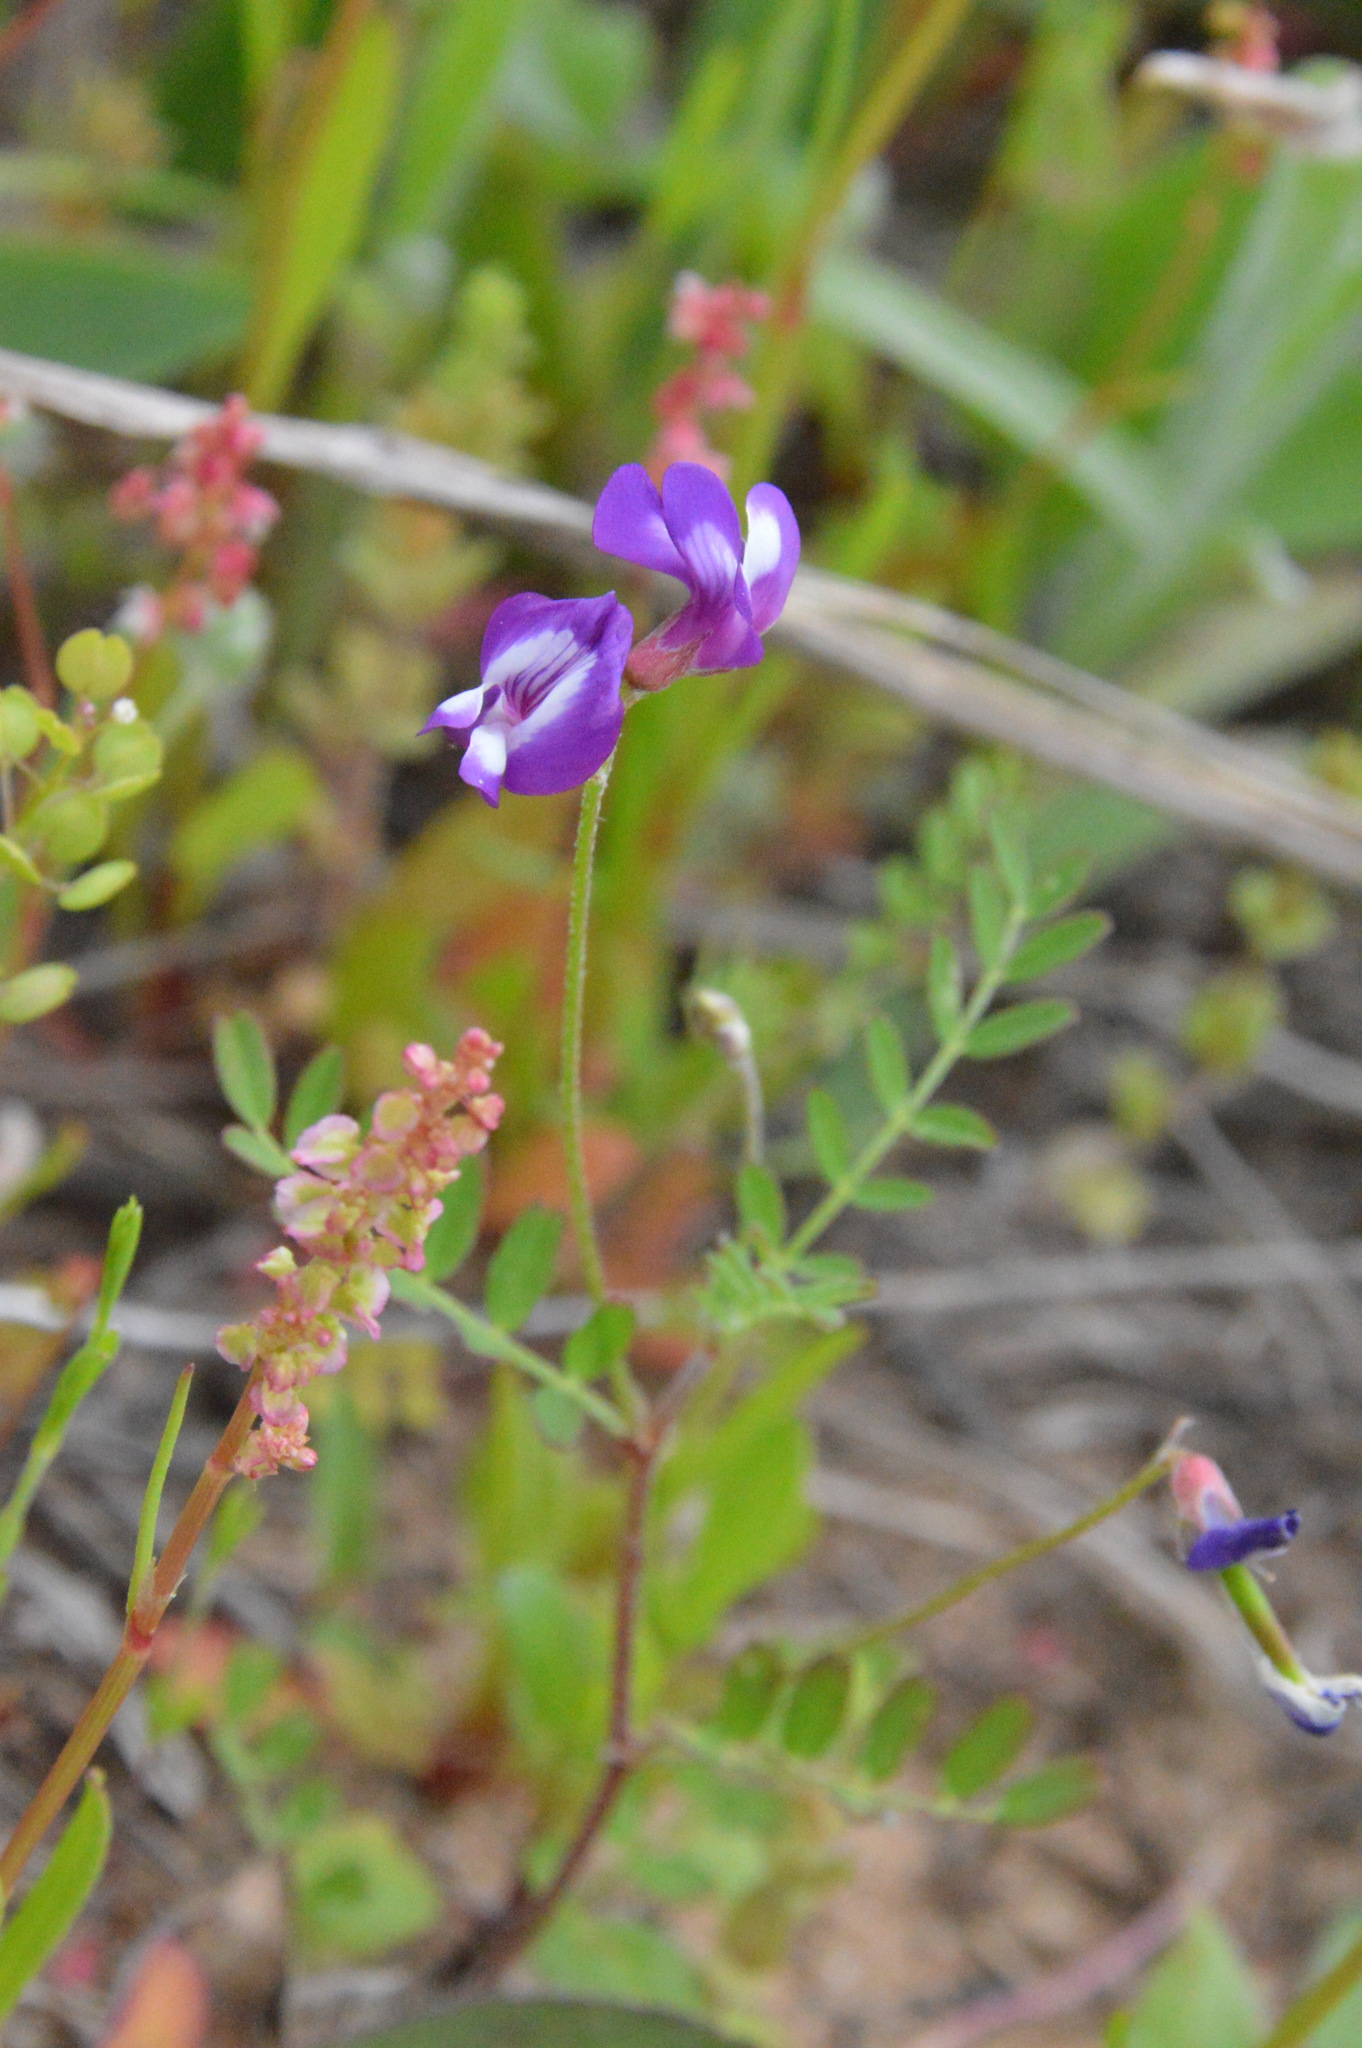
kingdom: Plantae
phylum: Tracheophyta
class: Magnoliopsida
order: Fabales
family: Fabaceae
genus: Astragalus
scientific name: Astragalus leptocarpus
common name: Bodkin milk-vetch
